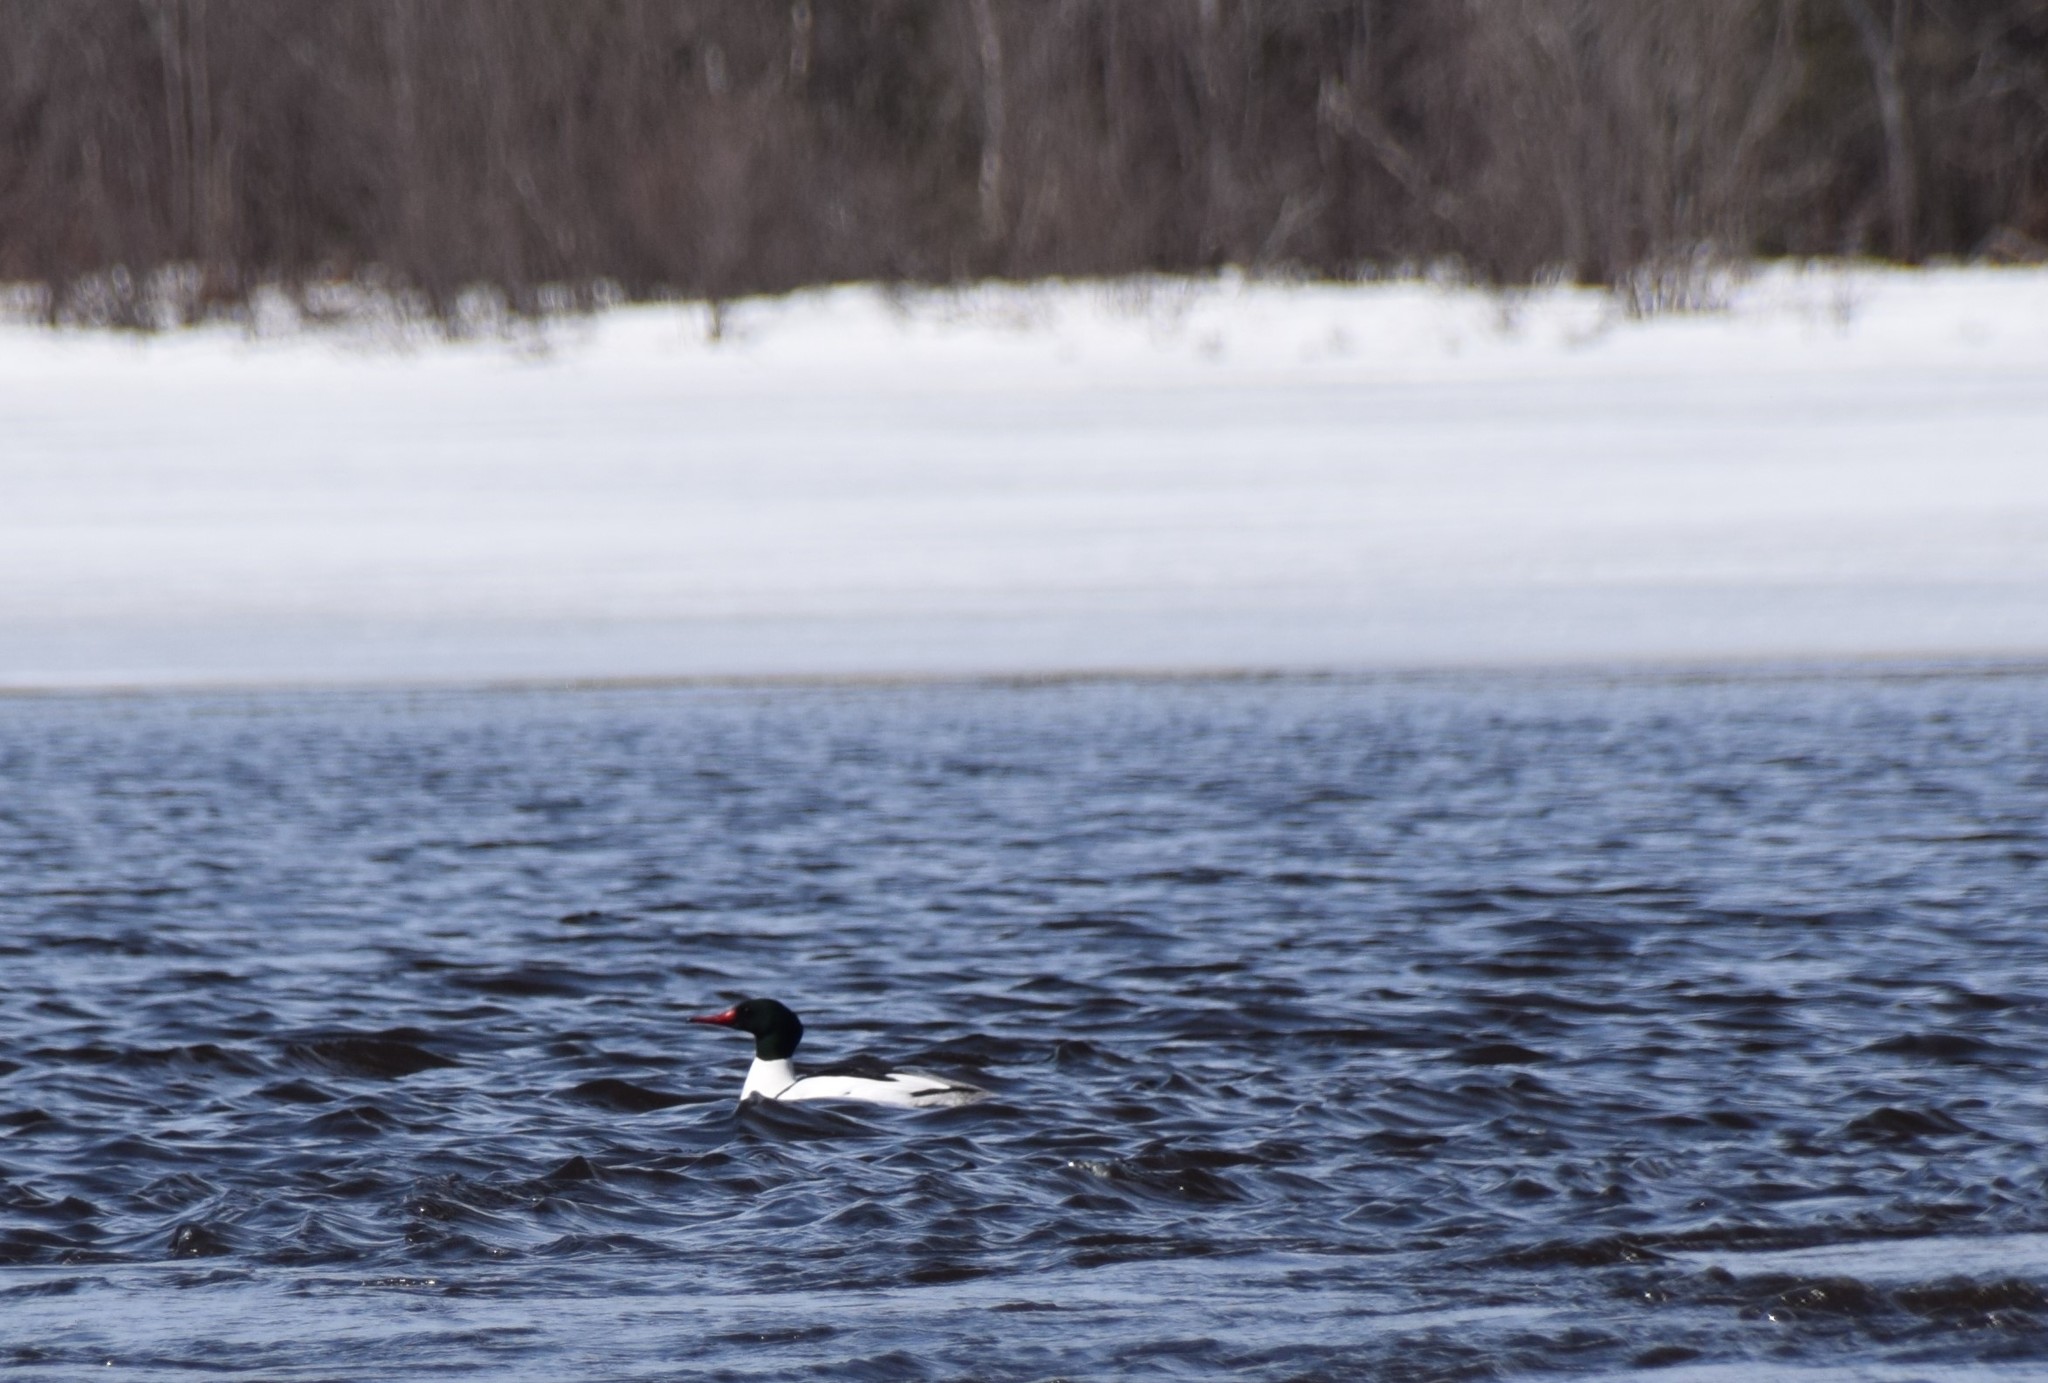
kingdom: Animalia
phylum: Chordata
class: Aves
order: Anseriformes
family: Anatidae
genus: Mergus
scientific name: Mergus merganser
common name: Common merganser
